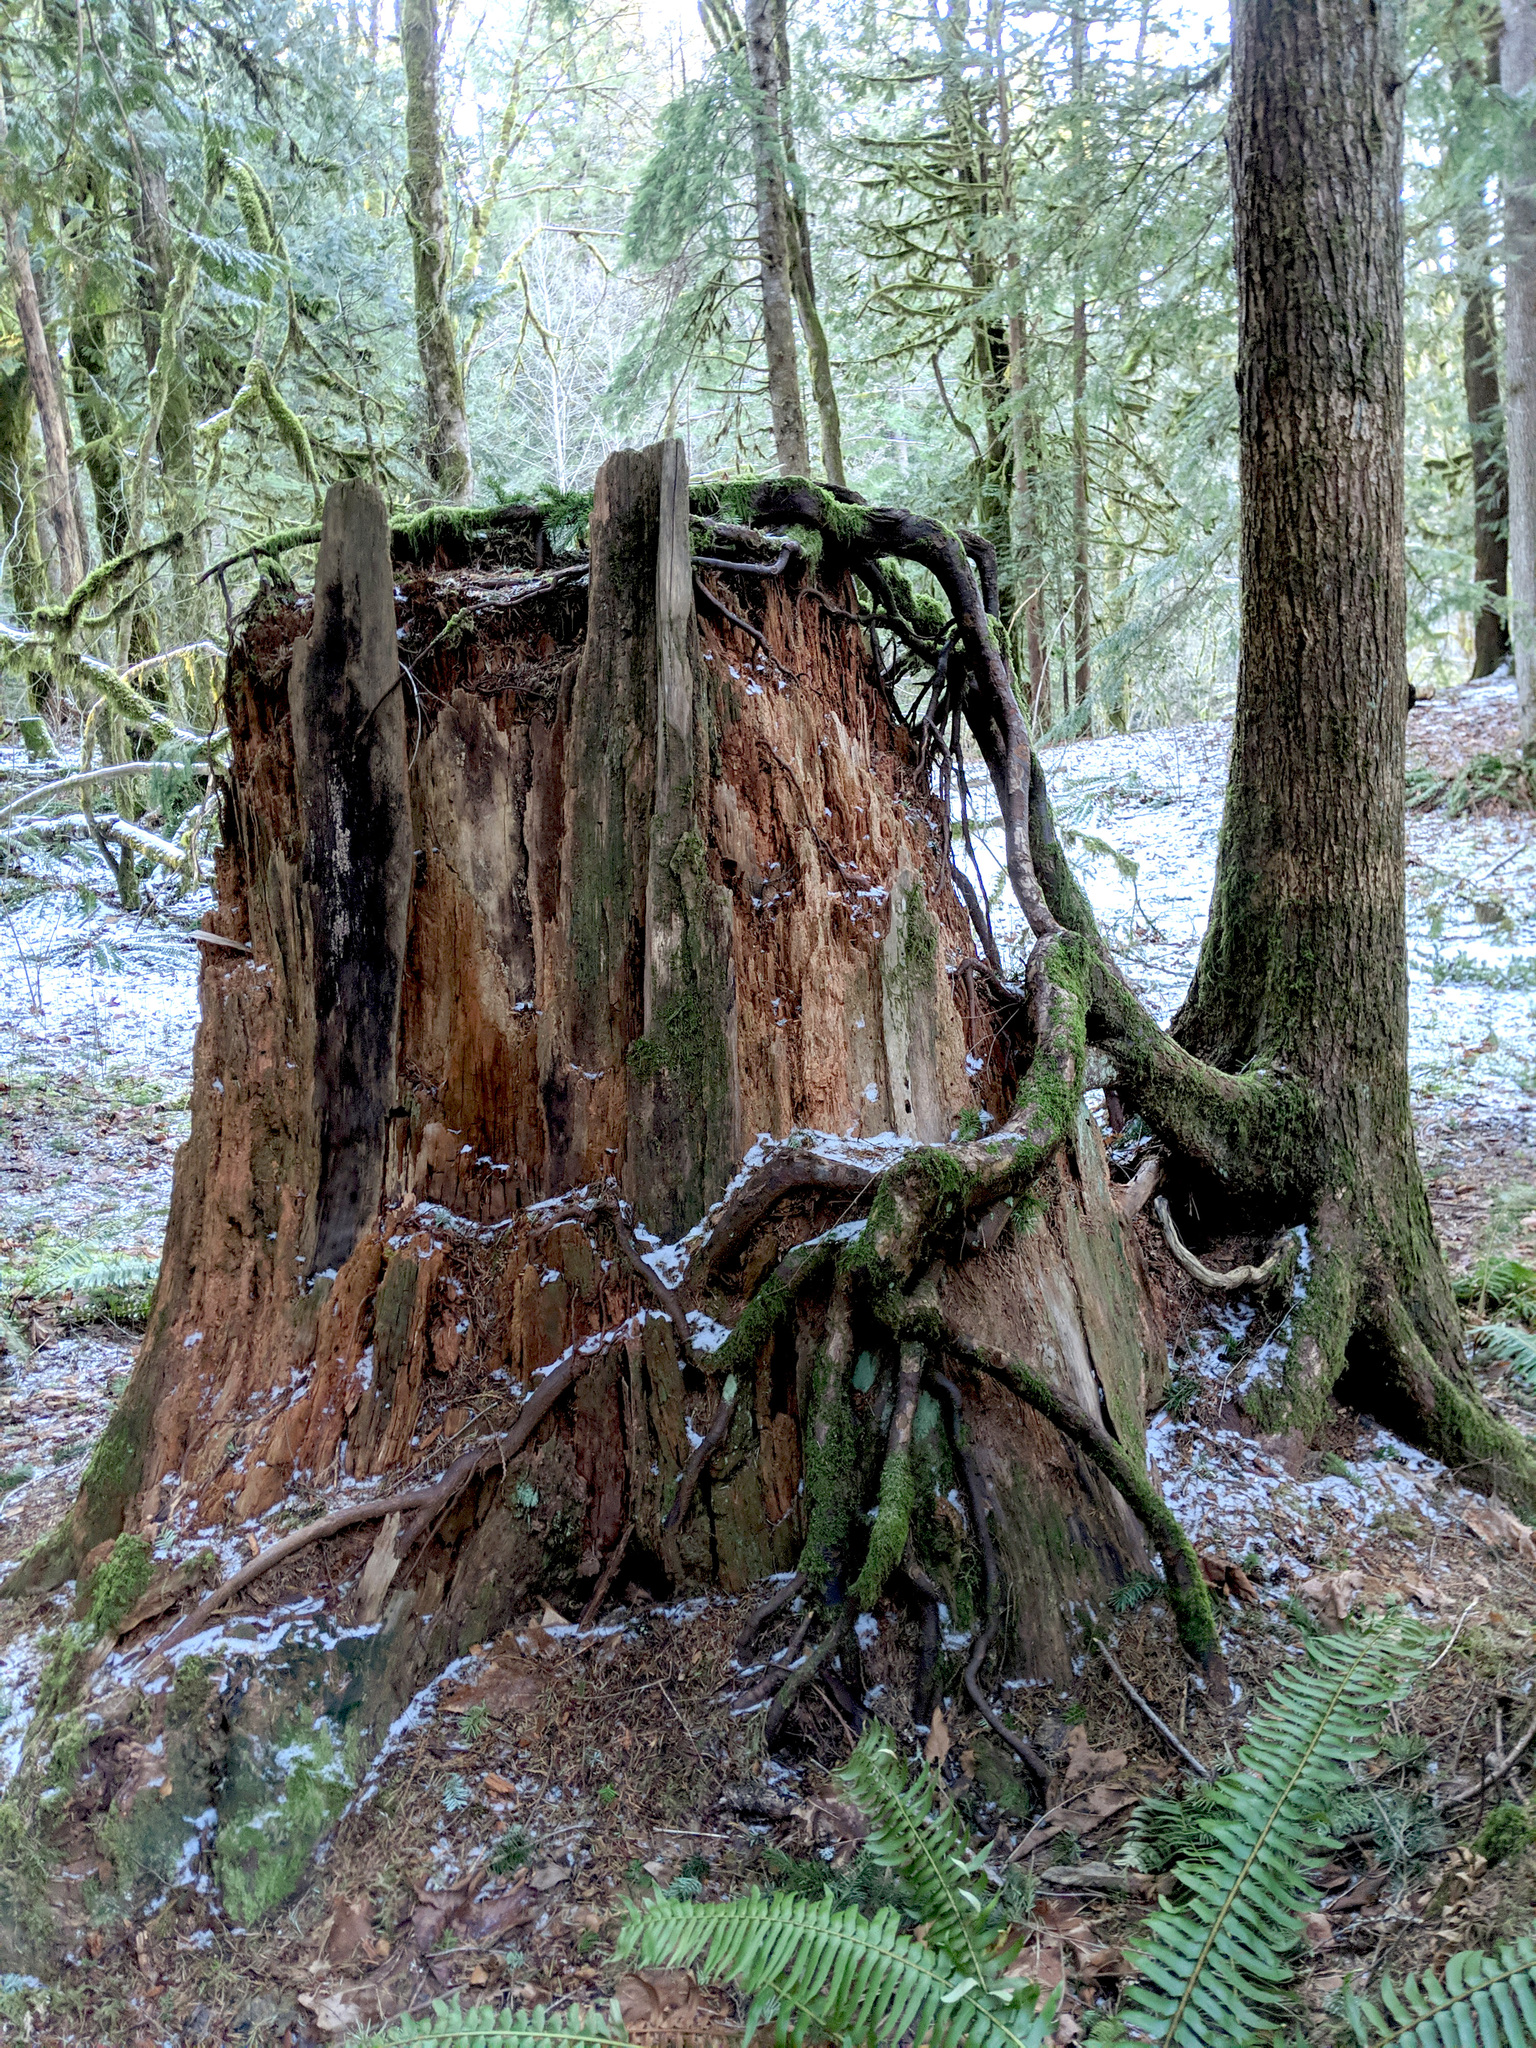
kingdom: Plantae
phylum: Tracheophyta
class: Pinopsida
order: Pinales
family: Pinaceae
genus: Tsuga
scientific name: Tsuga heterophylla
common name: Western hemlock
